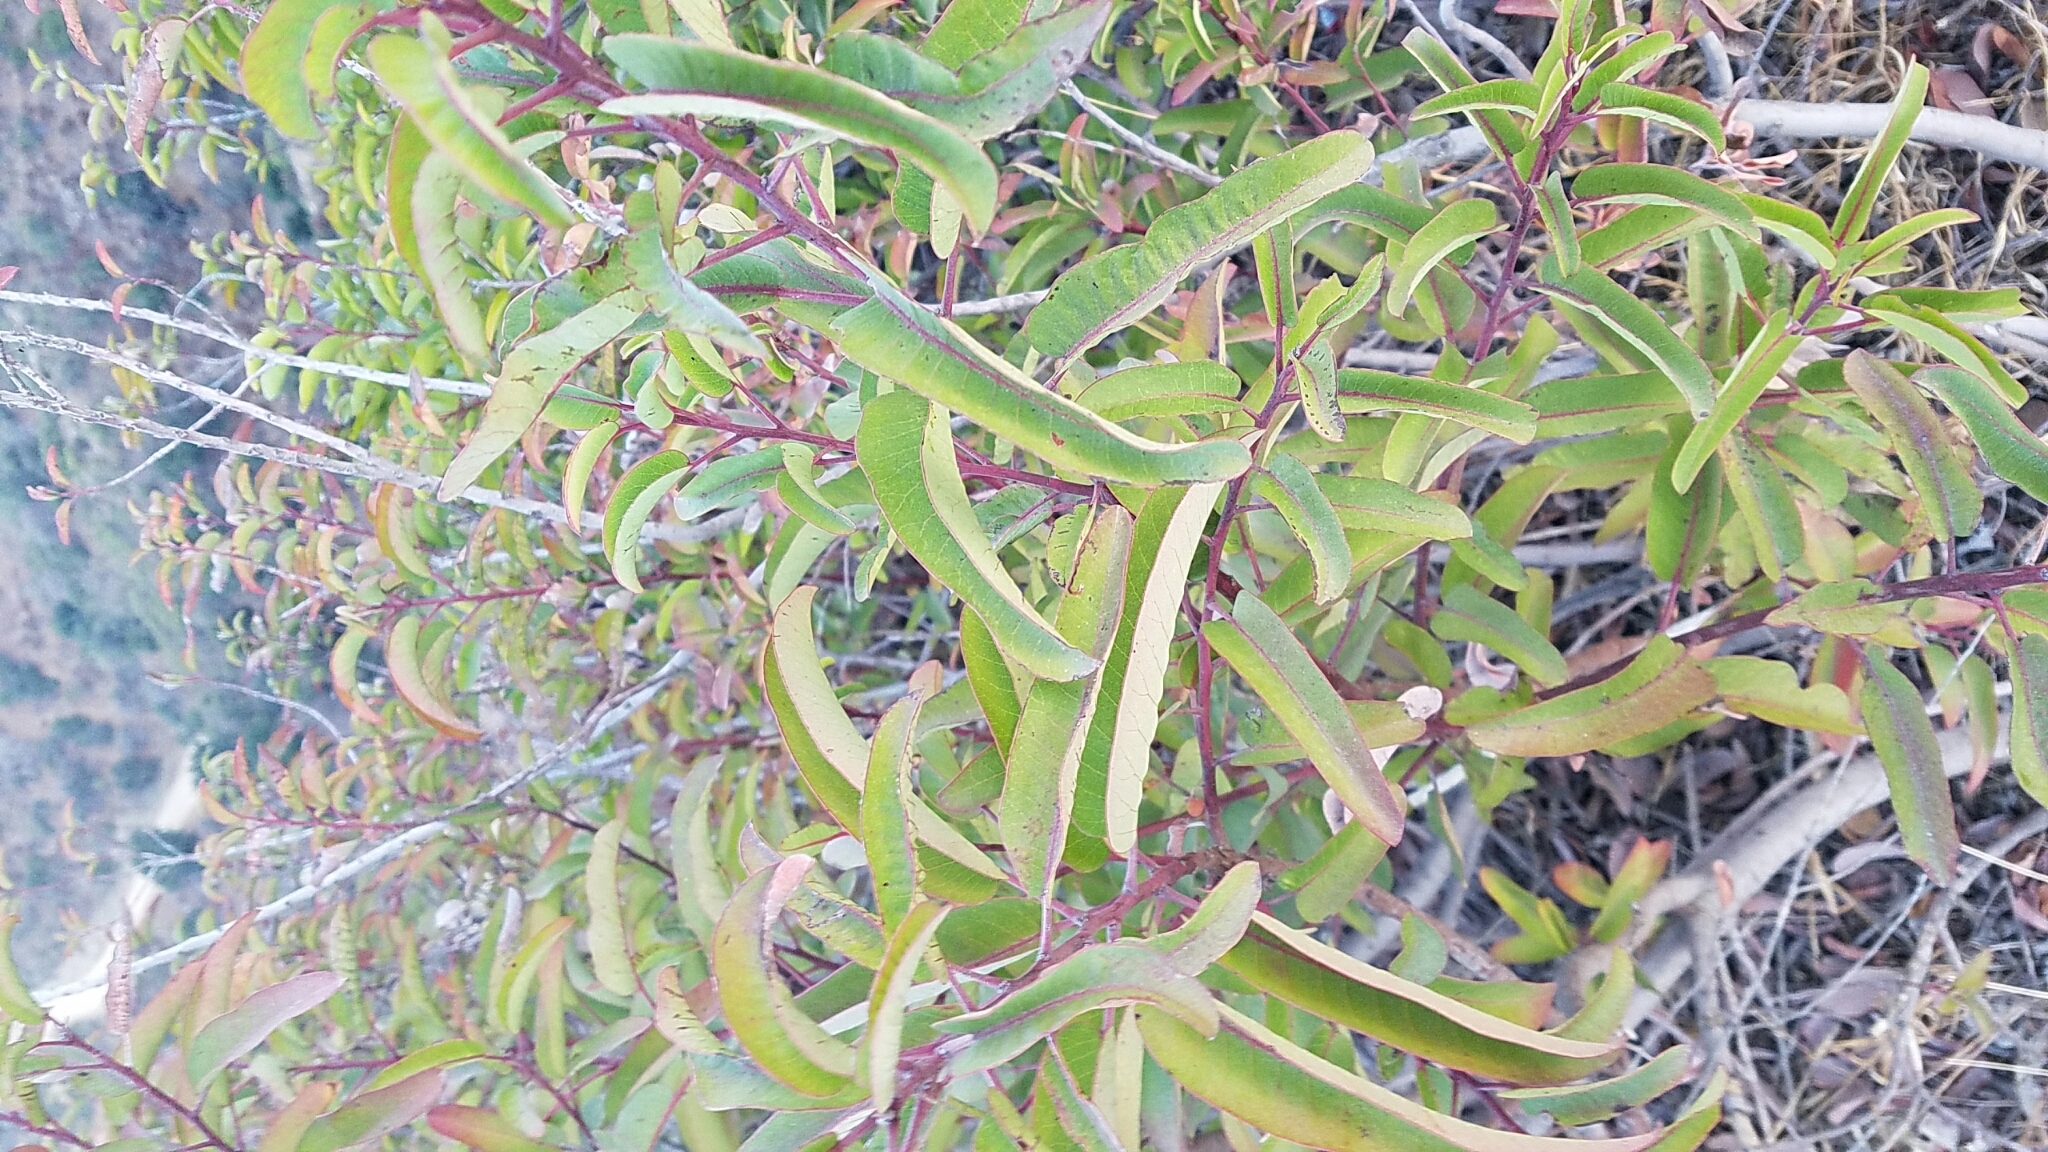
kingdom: Plantae
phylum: Tracheophyta
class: Magnoliopsida
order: Sapindales
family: Anacardiaceae
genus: Malosma
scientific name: Malosma laurina
